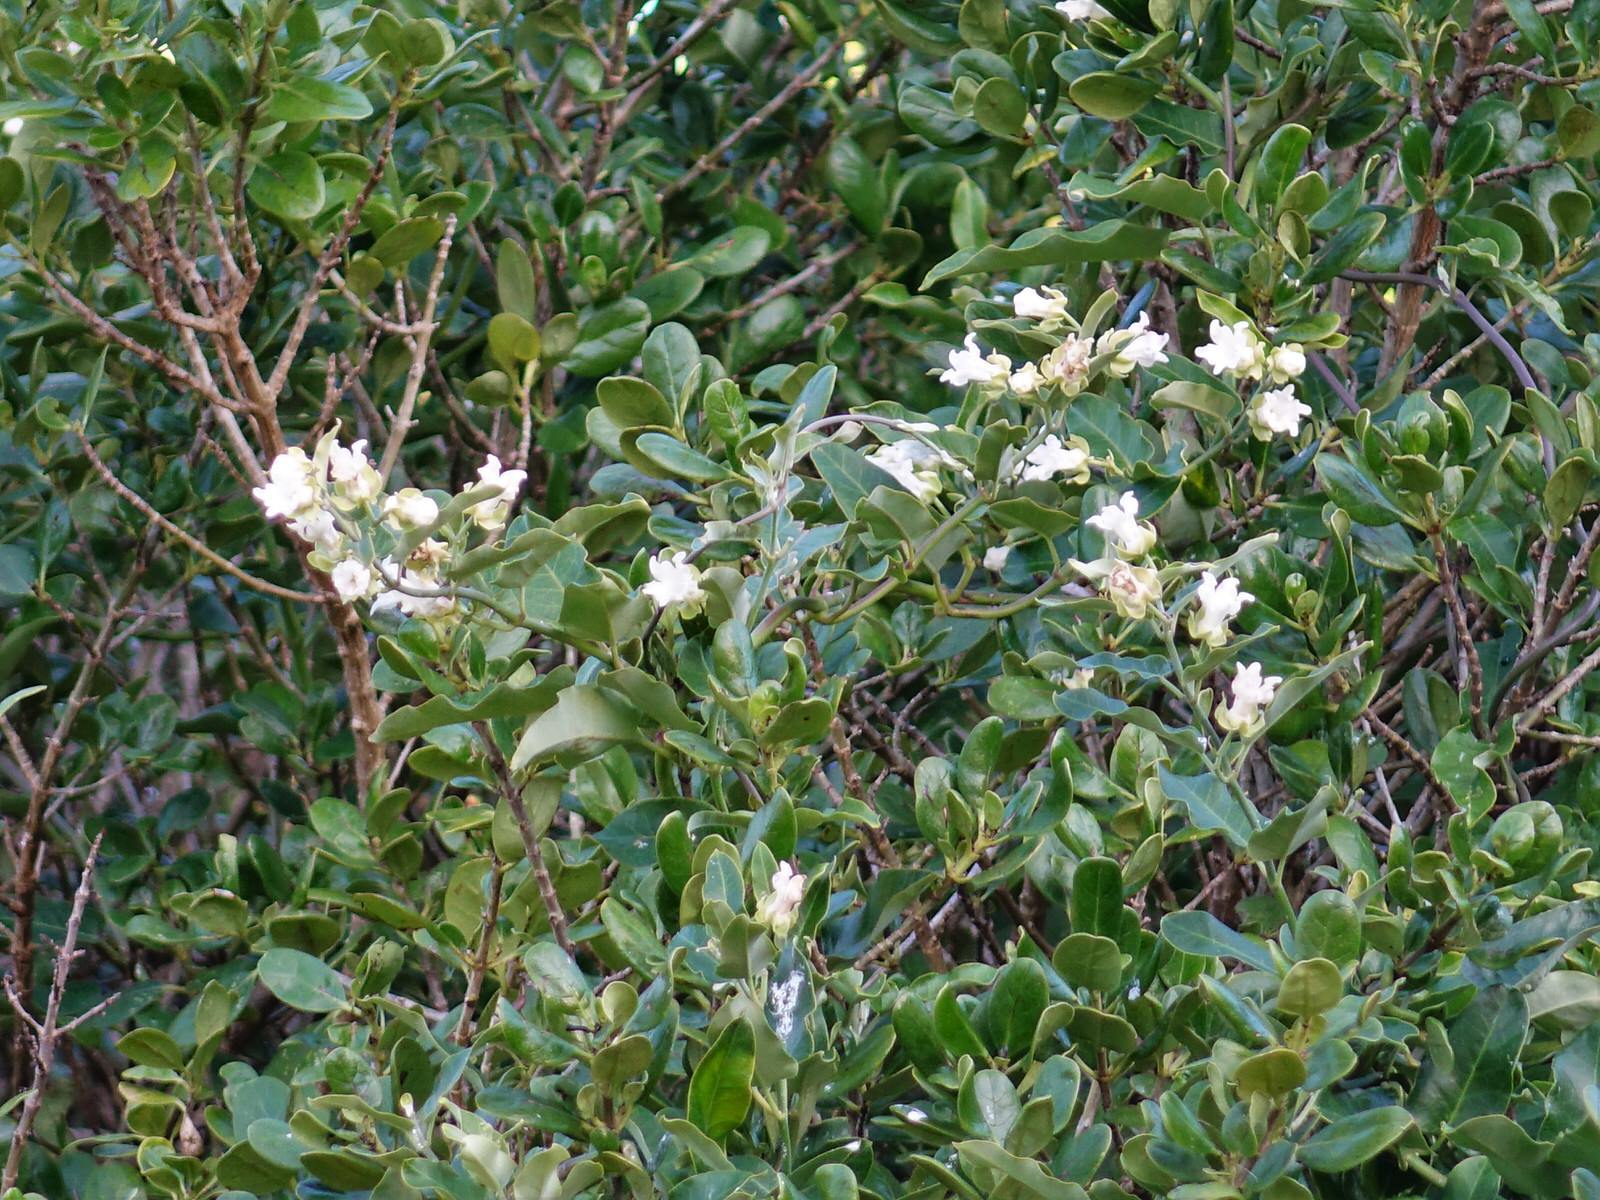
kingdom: Plantae
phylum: Tracheophyta
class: Magnoliopsida
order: Gentianales
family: Apocynaceae
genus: Araujia
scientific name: Araujia sericifera
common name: White bladderflower
